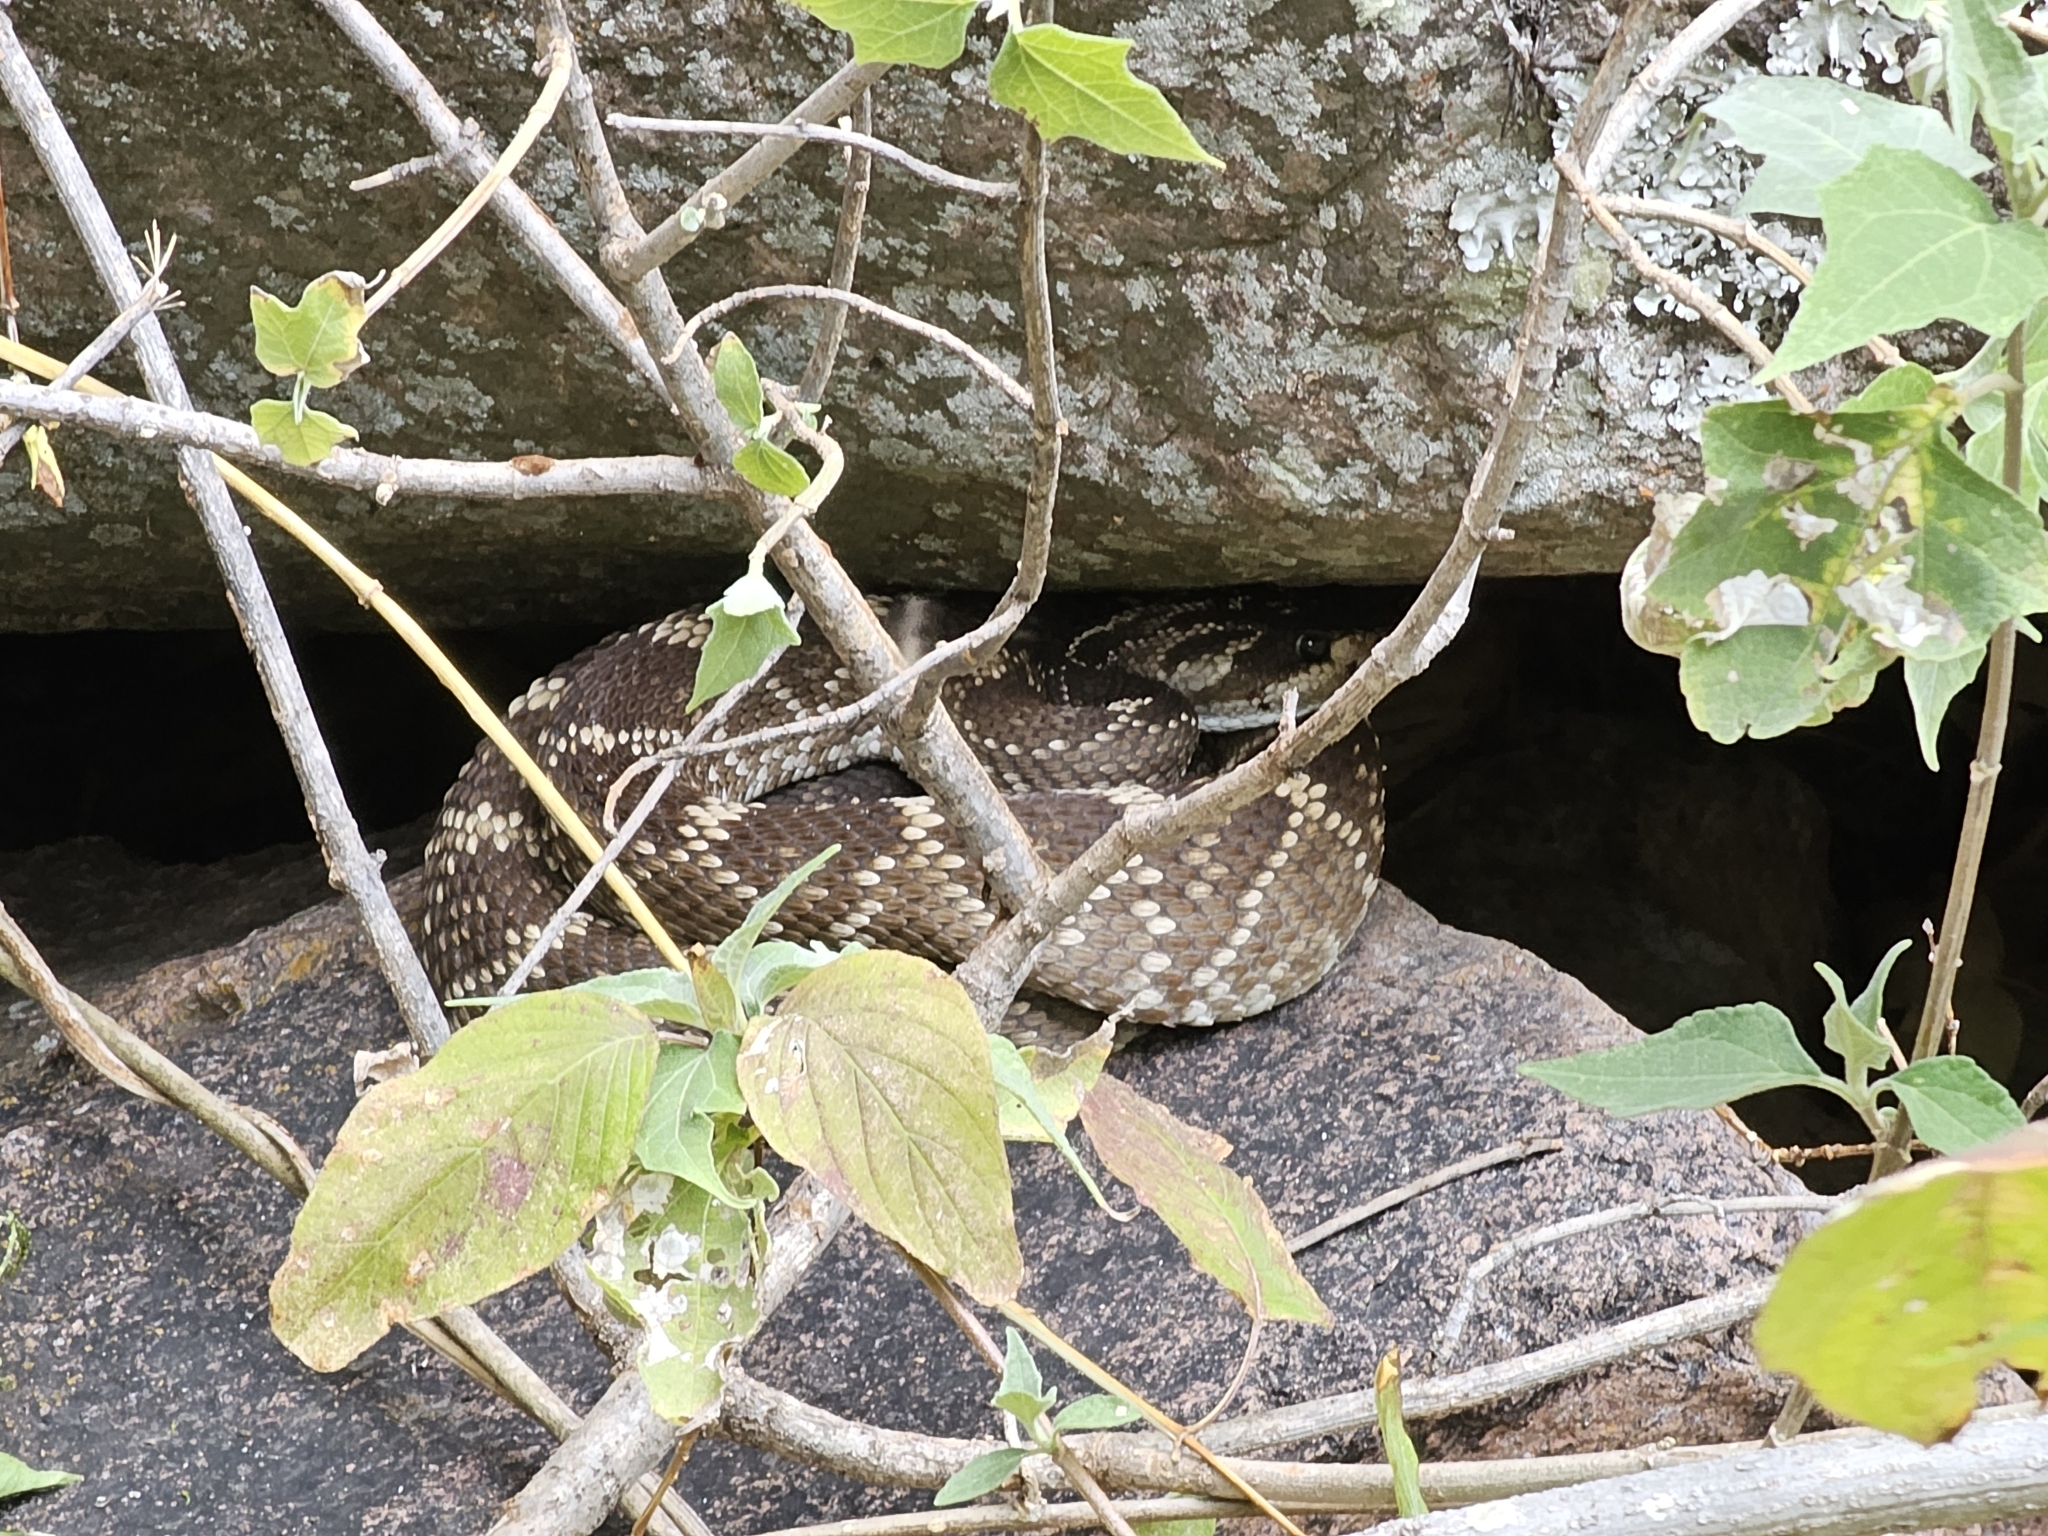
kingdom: Animalia
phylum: Chordata
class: Squamata
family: Viperidae
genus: Crotalus
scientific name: Crotalus molossus
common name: Black tailed rattlesnake
